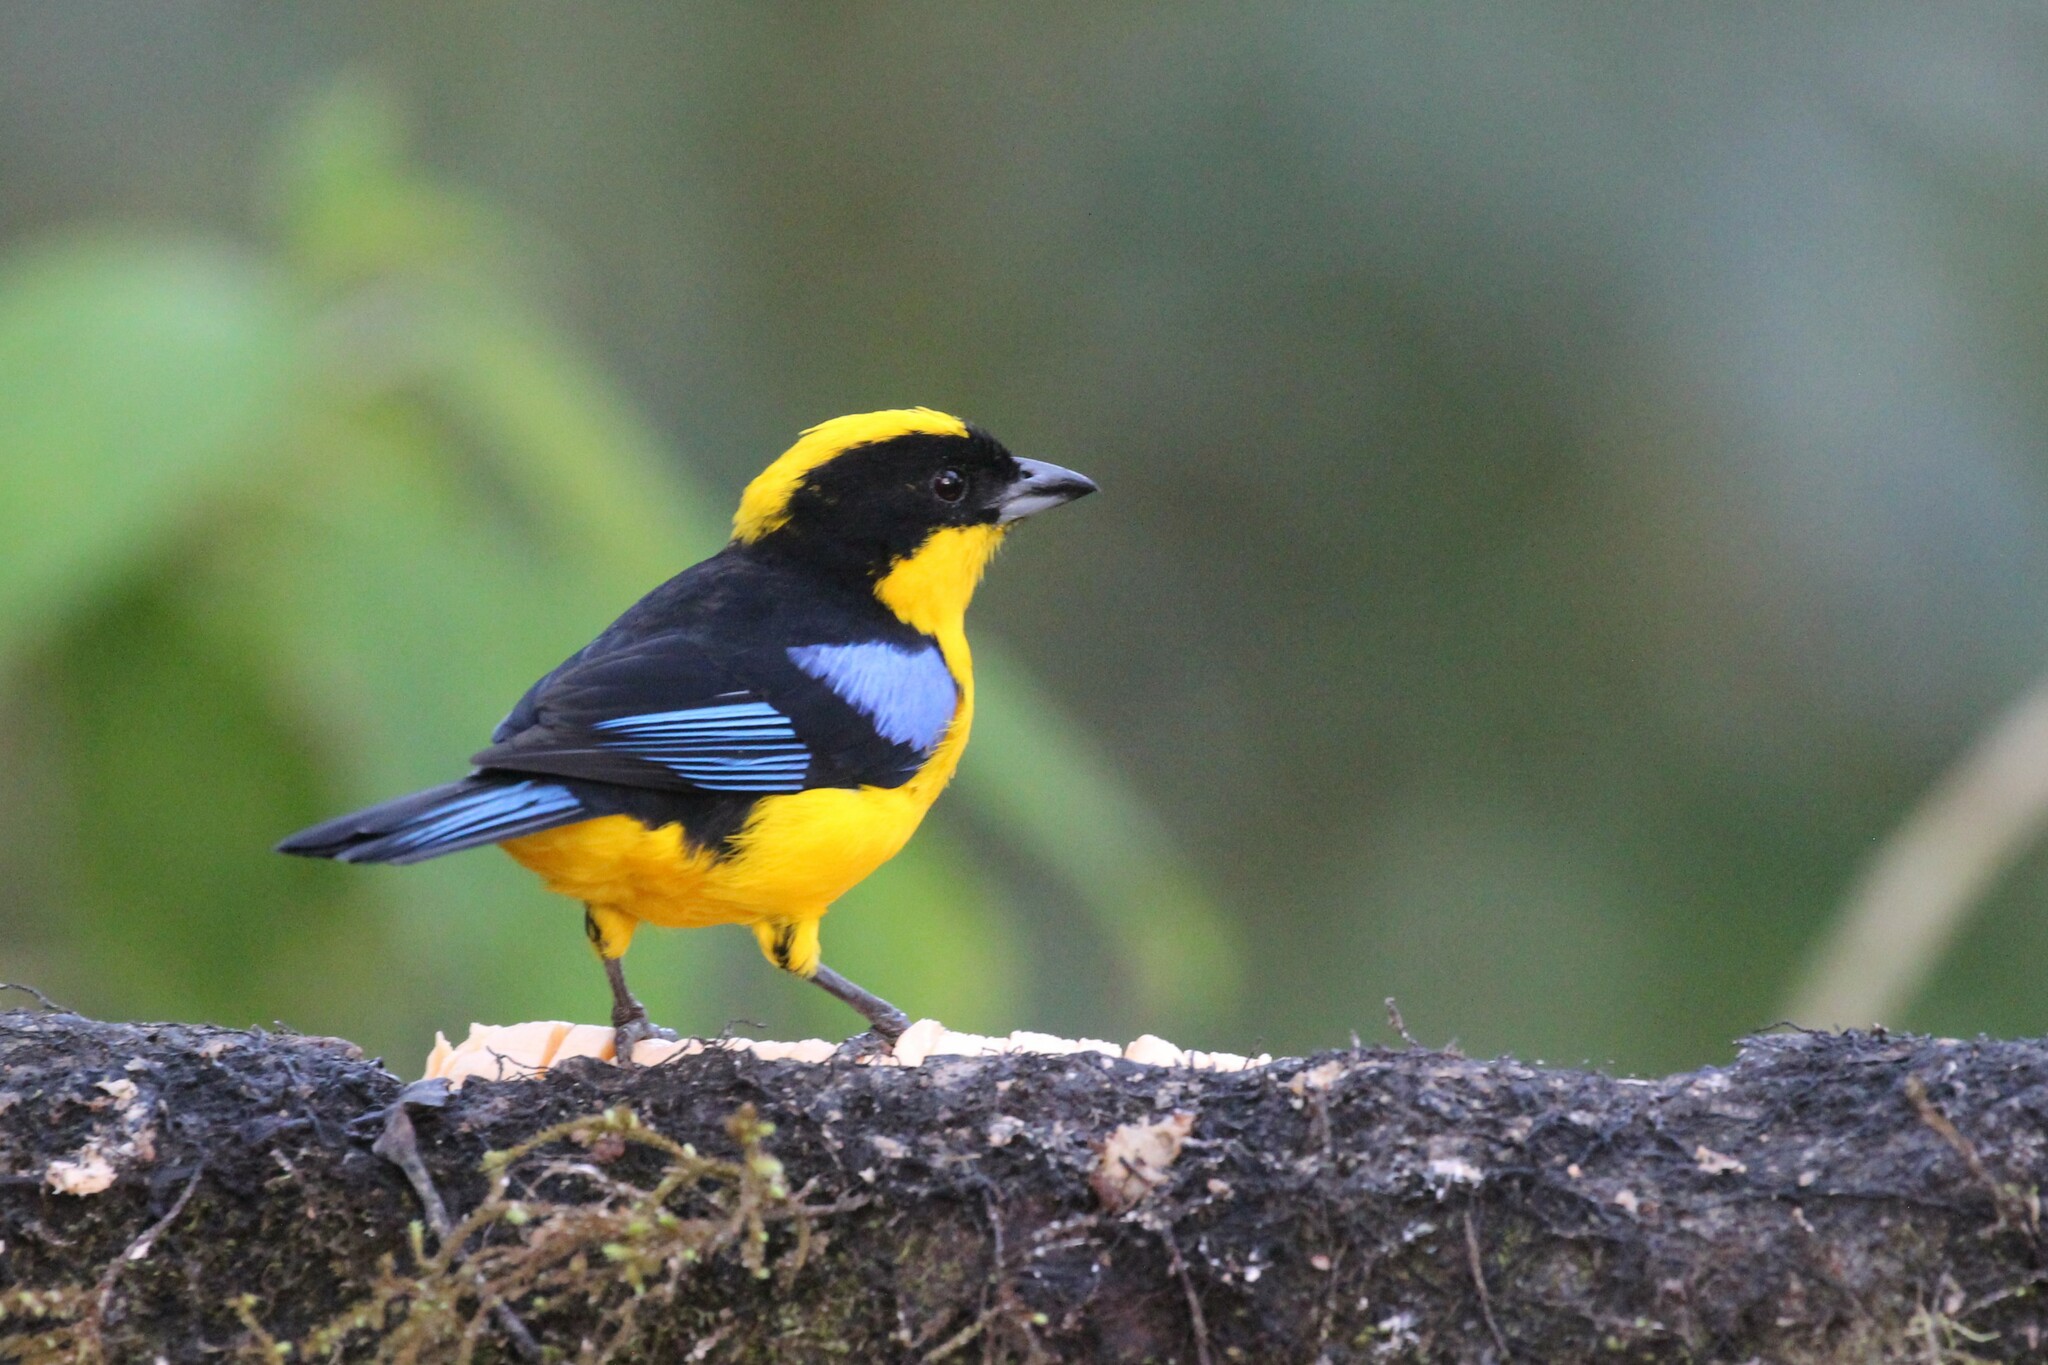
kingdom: Animalia
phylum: Chordata
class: Aves
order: Passeriformes
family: Thraupidae
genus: Anisognathus
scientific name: Anisognathus somptuosus
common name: Blue-winged mountain-tanager
